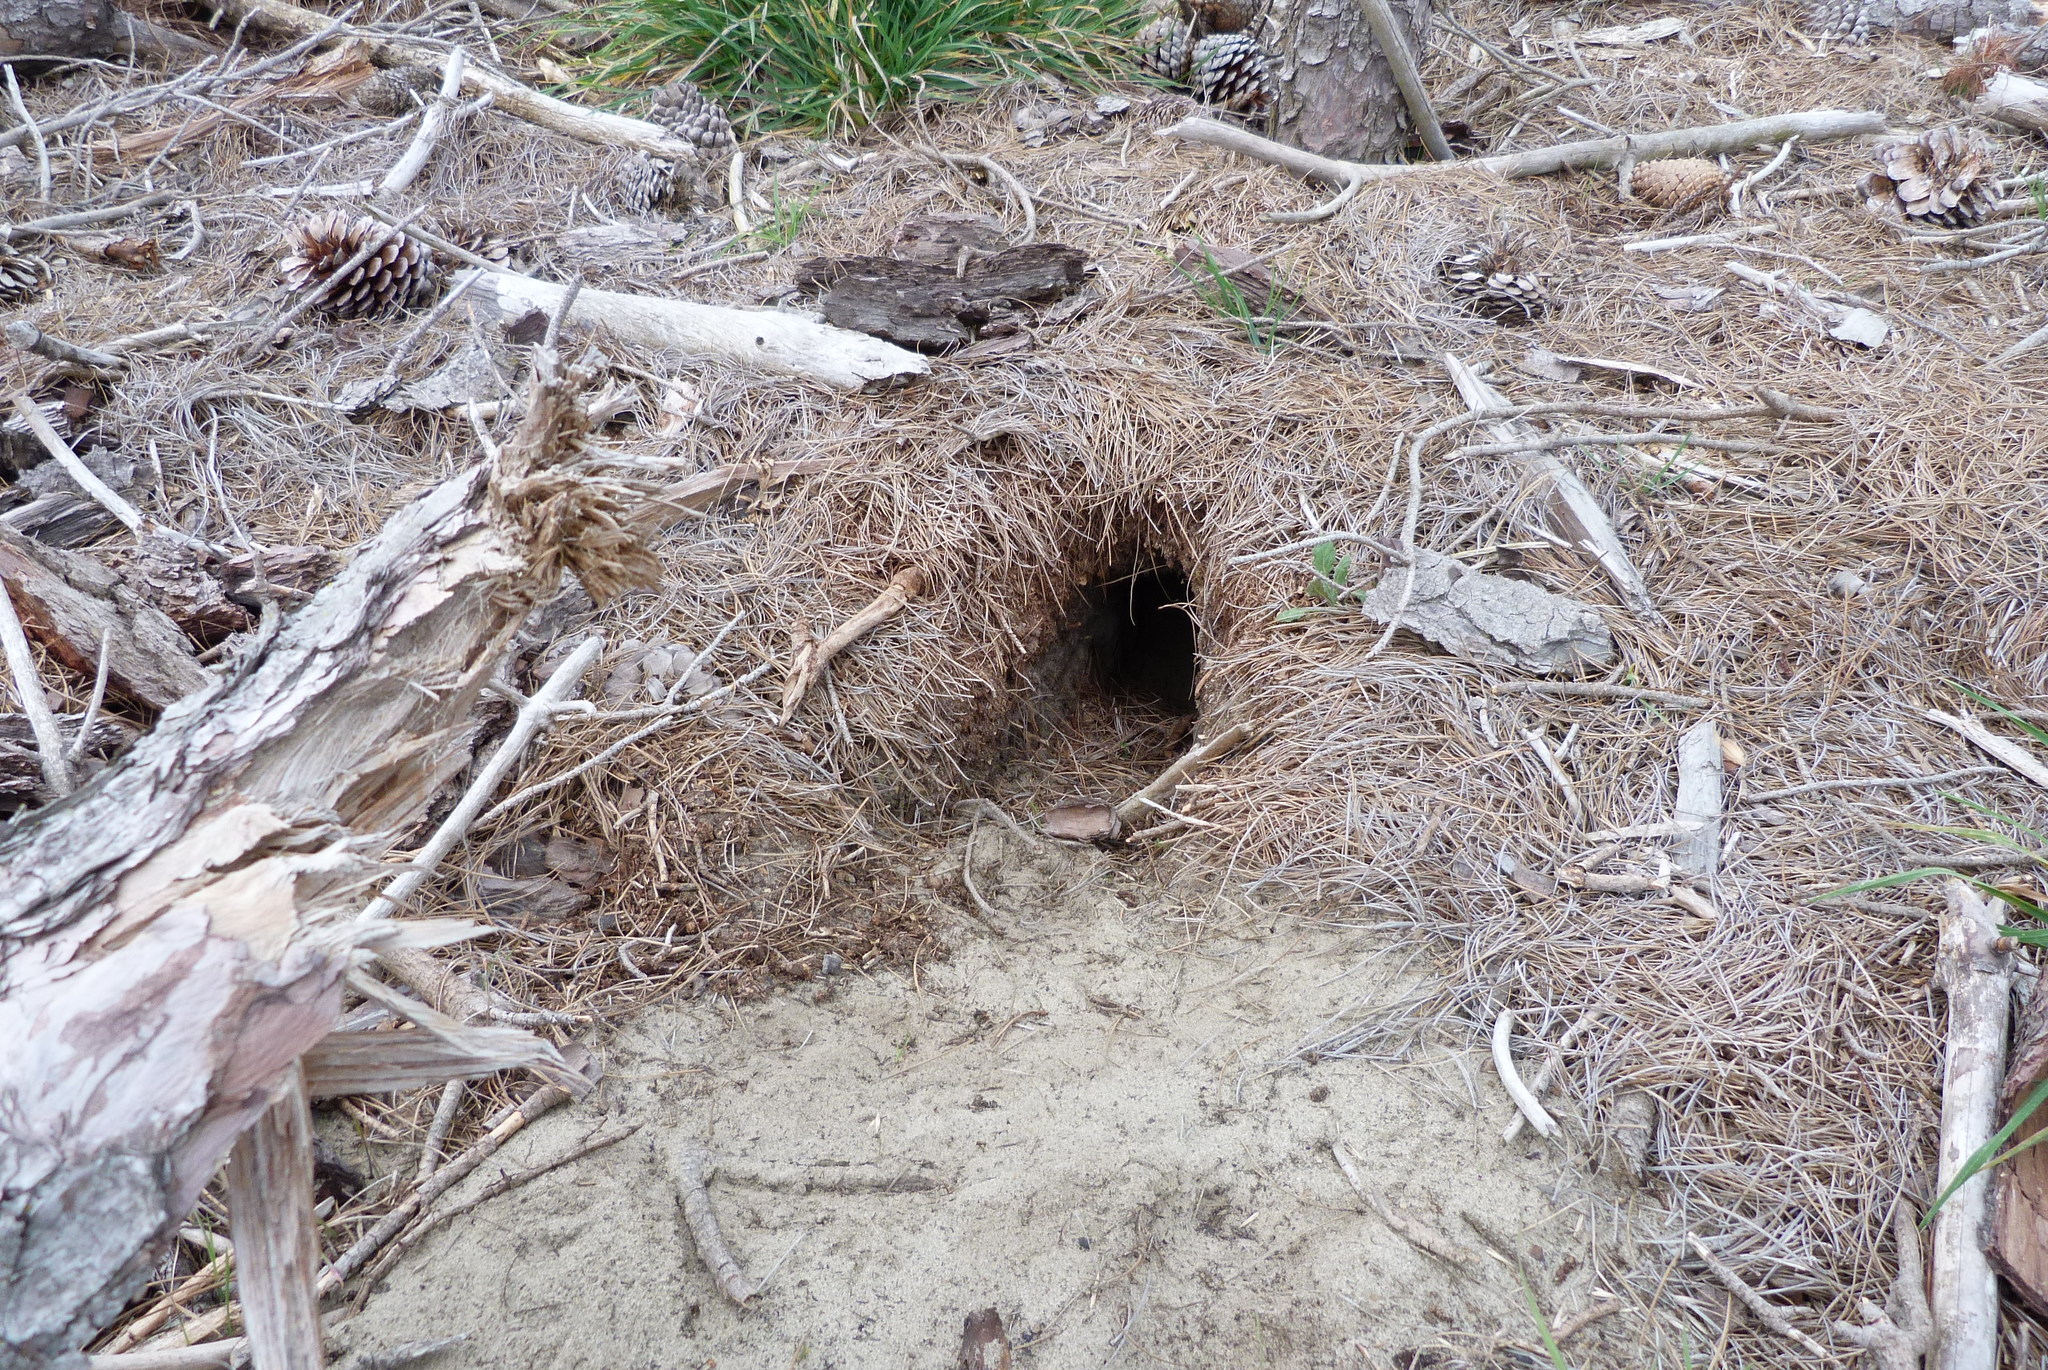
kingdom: Animalia
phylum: Chordata
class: Mammalia
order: Lagomorpha
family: Leporidae
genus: Oryctolagus
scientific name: Oryctolagus cuniculus
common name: European rabbit
